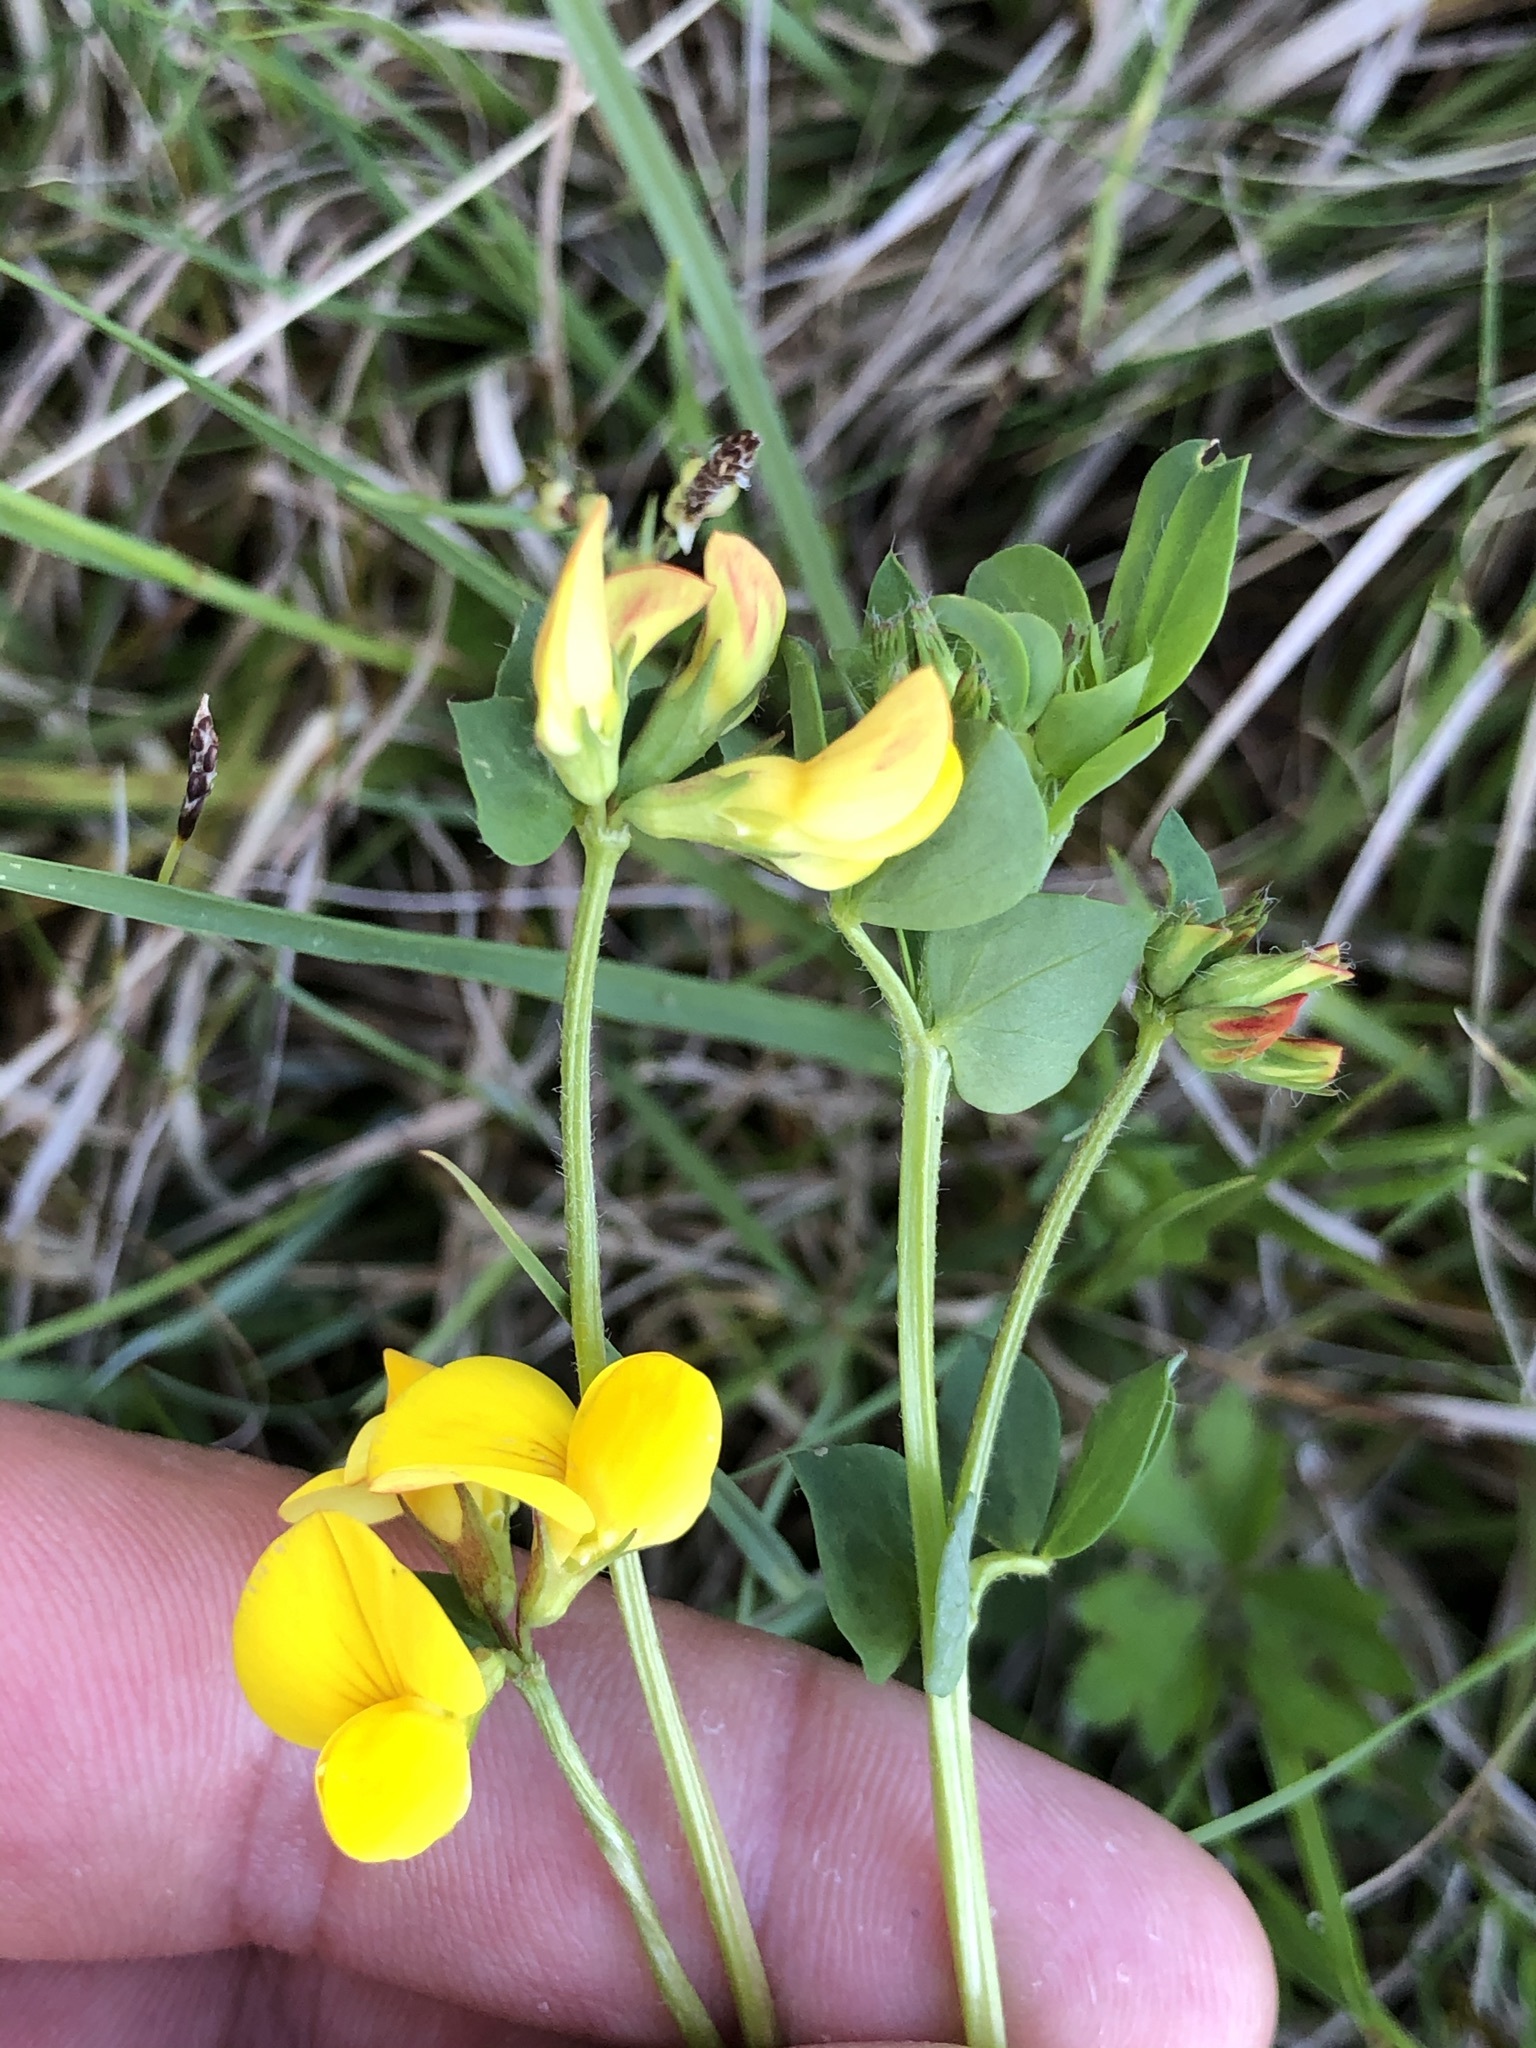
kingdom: Plantae
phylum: Tracheophyta
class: Magnoliopsida
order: Fabales
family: Fabaceae
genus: Lotus
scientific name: Lotus corniculatus
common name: Common bird's-foot-trefoil
